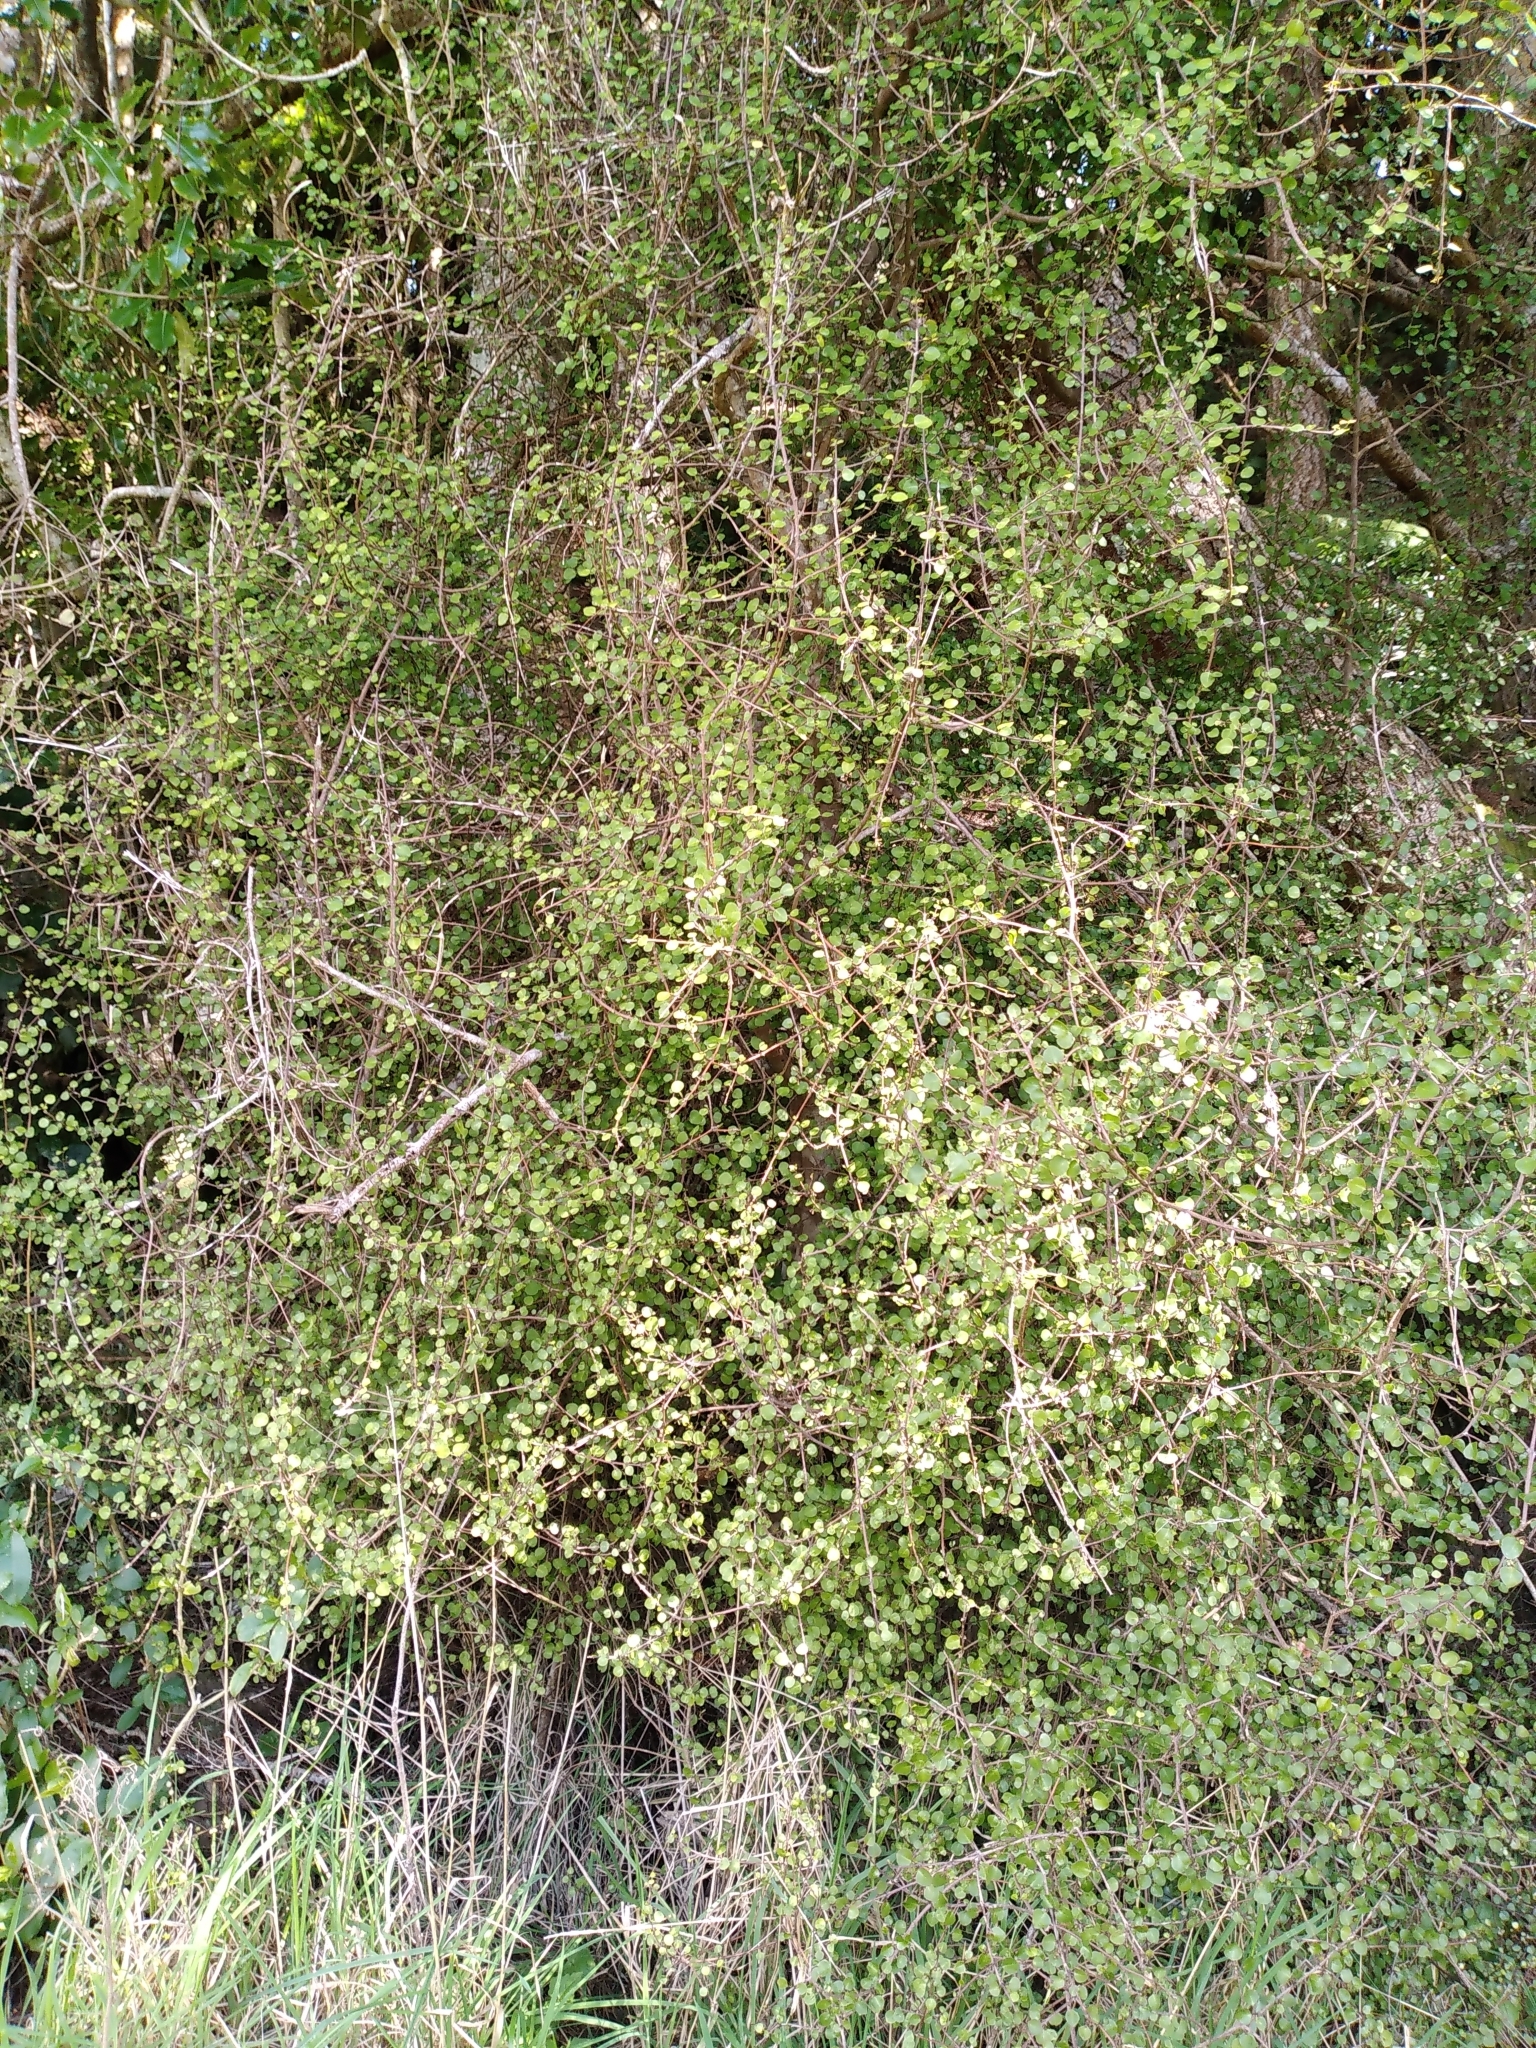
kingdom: Plantae
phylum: Tracheophyta
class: Magnoliopsida
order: Sapindales
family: Rutaceae
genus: Melicope
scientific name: Melicope simplex
